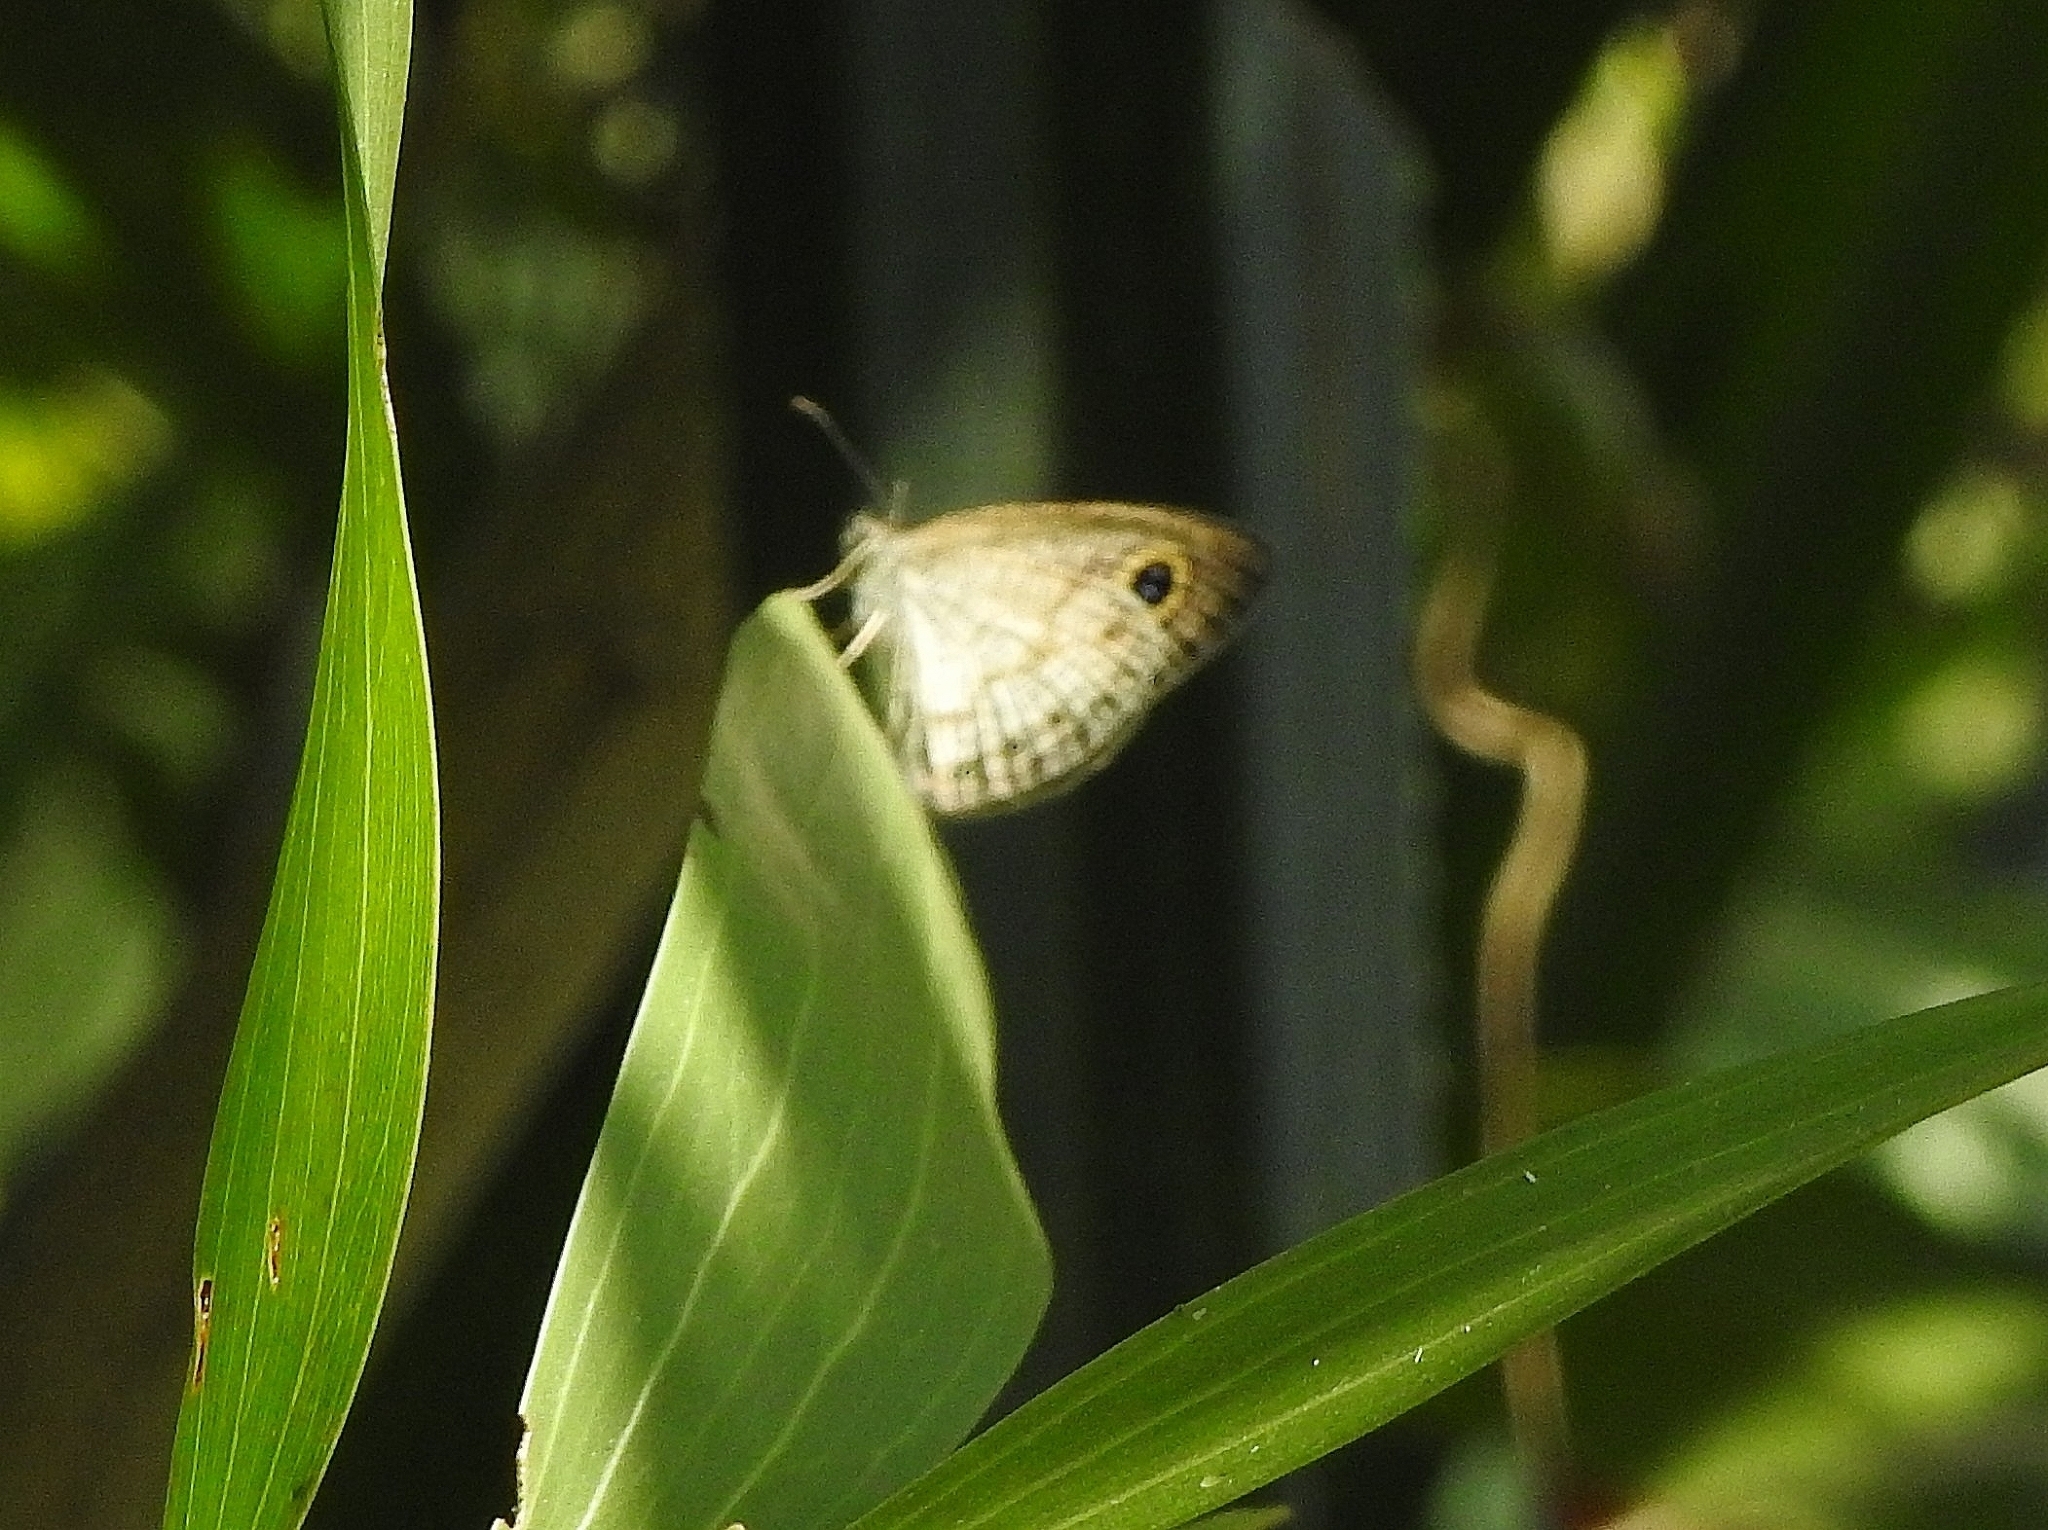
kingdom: Animalia
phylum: Arthropoda
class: Insecta
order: Lepidoptera
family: Nymphalidae
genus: Ypthima
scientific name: Ypthima huebneri
